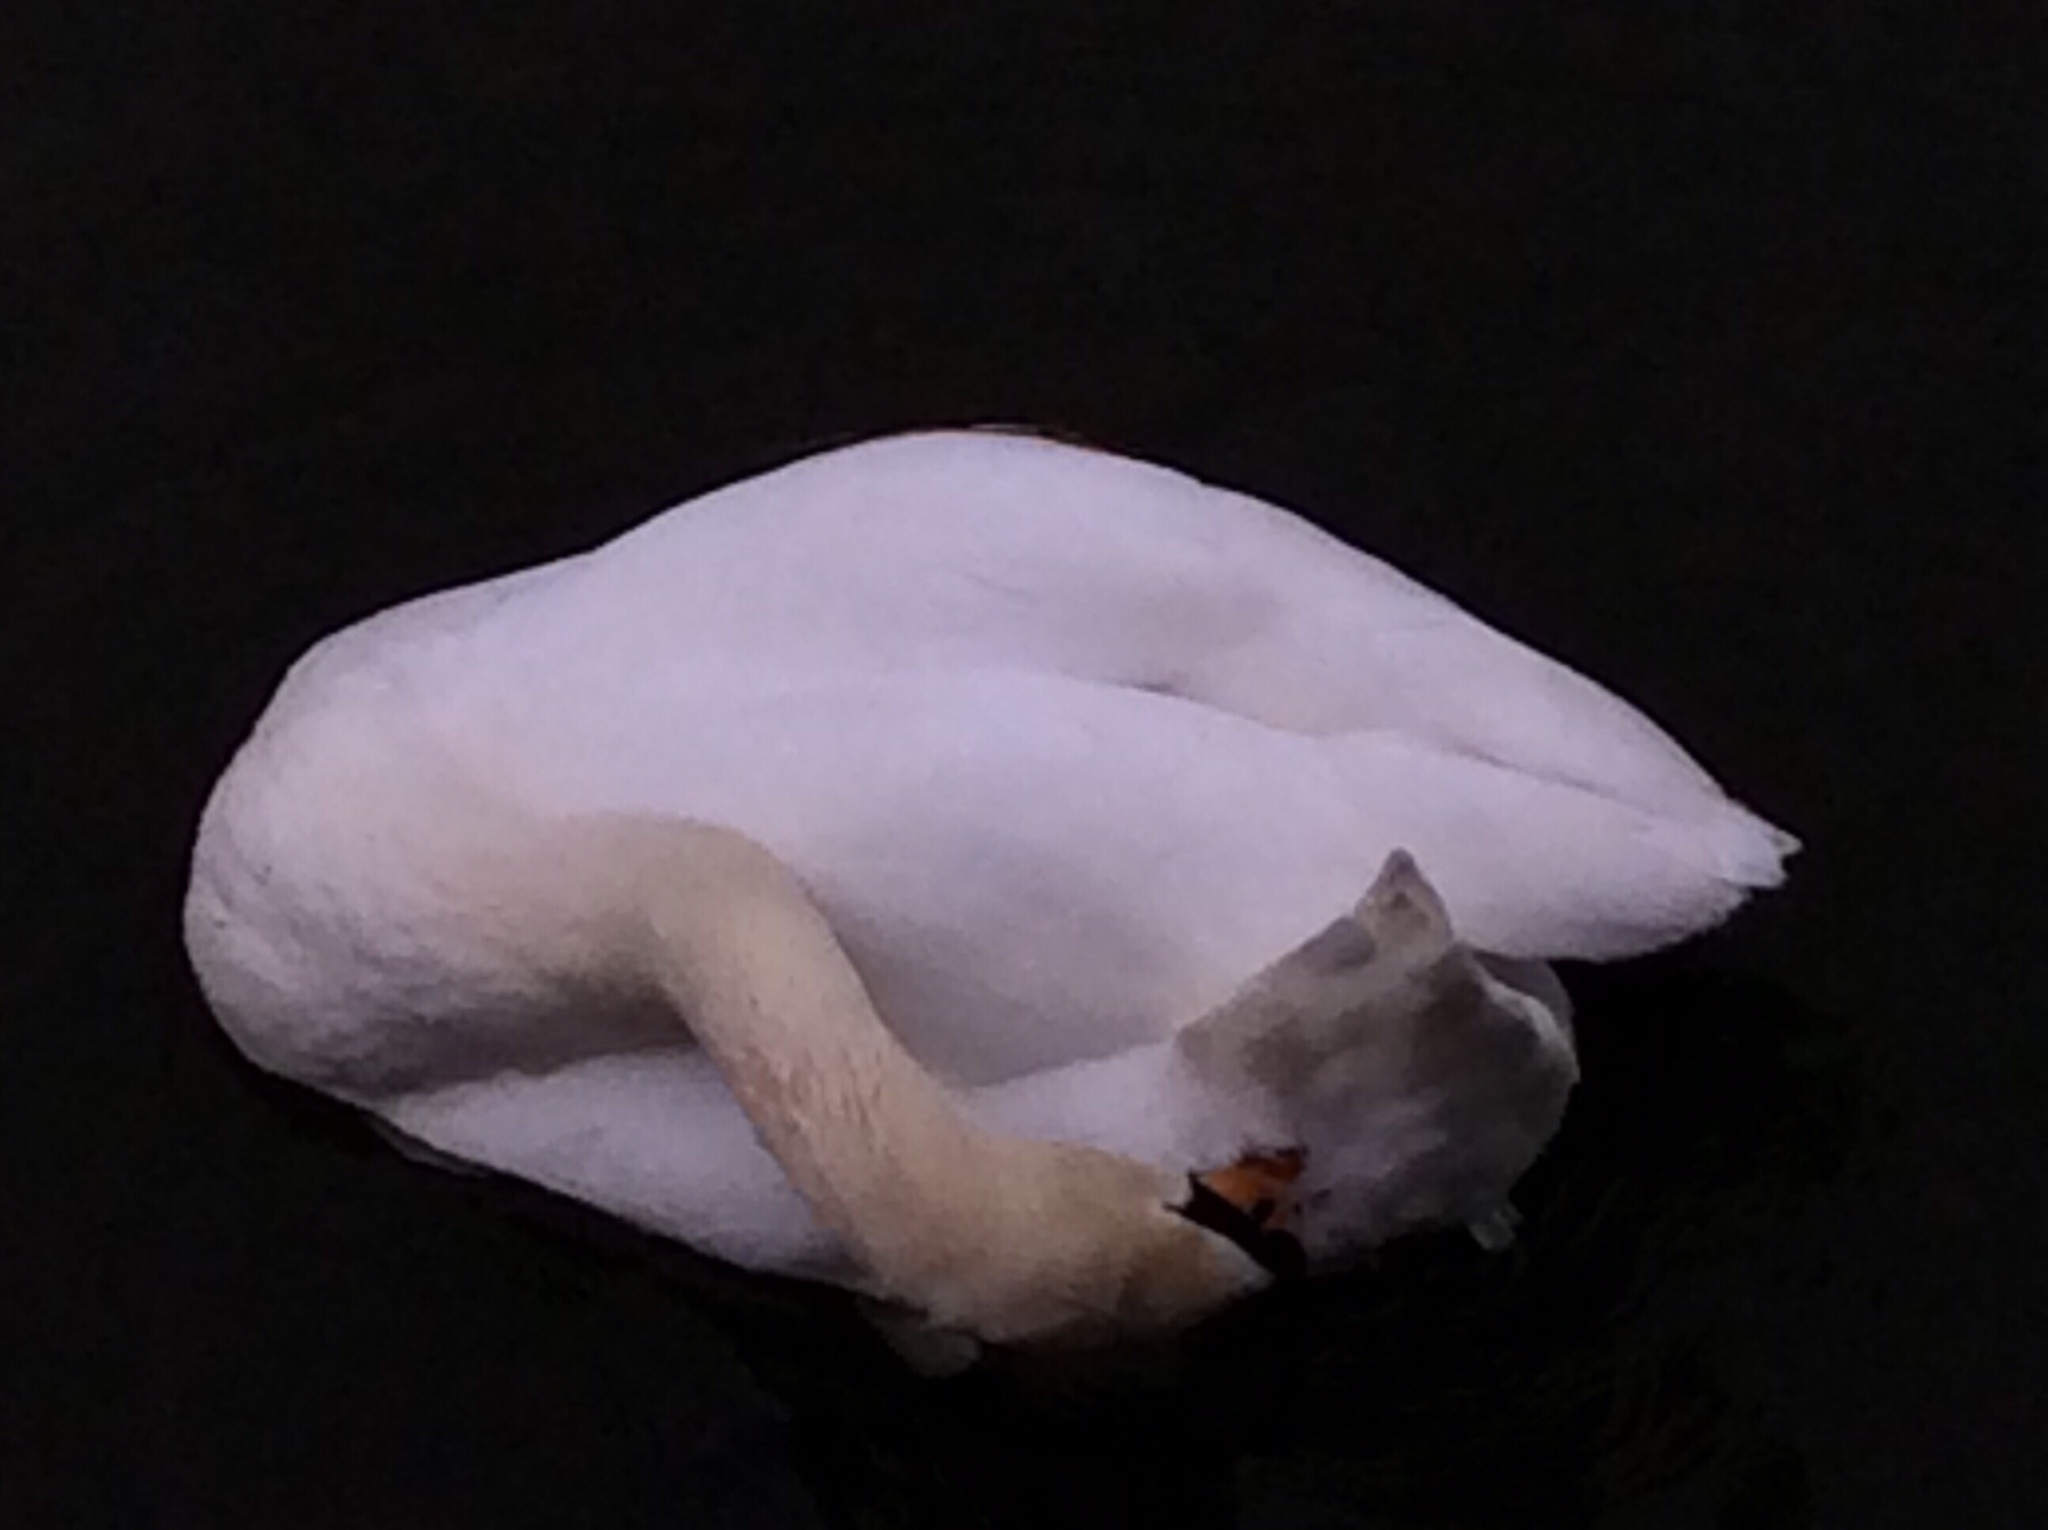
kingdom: Animalia
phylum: Chordata
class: Aves
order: Anseriformes
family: Anatidae
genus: Cygnus
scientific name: Cygnus olor
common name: Mute swan
